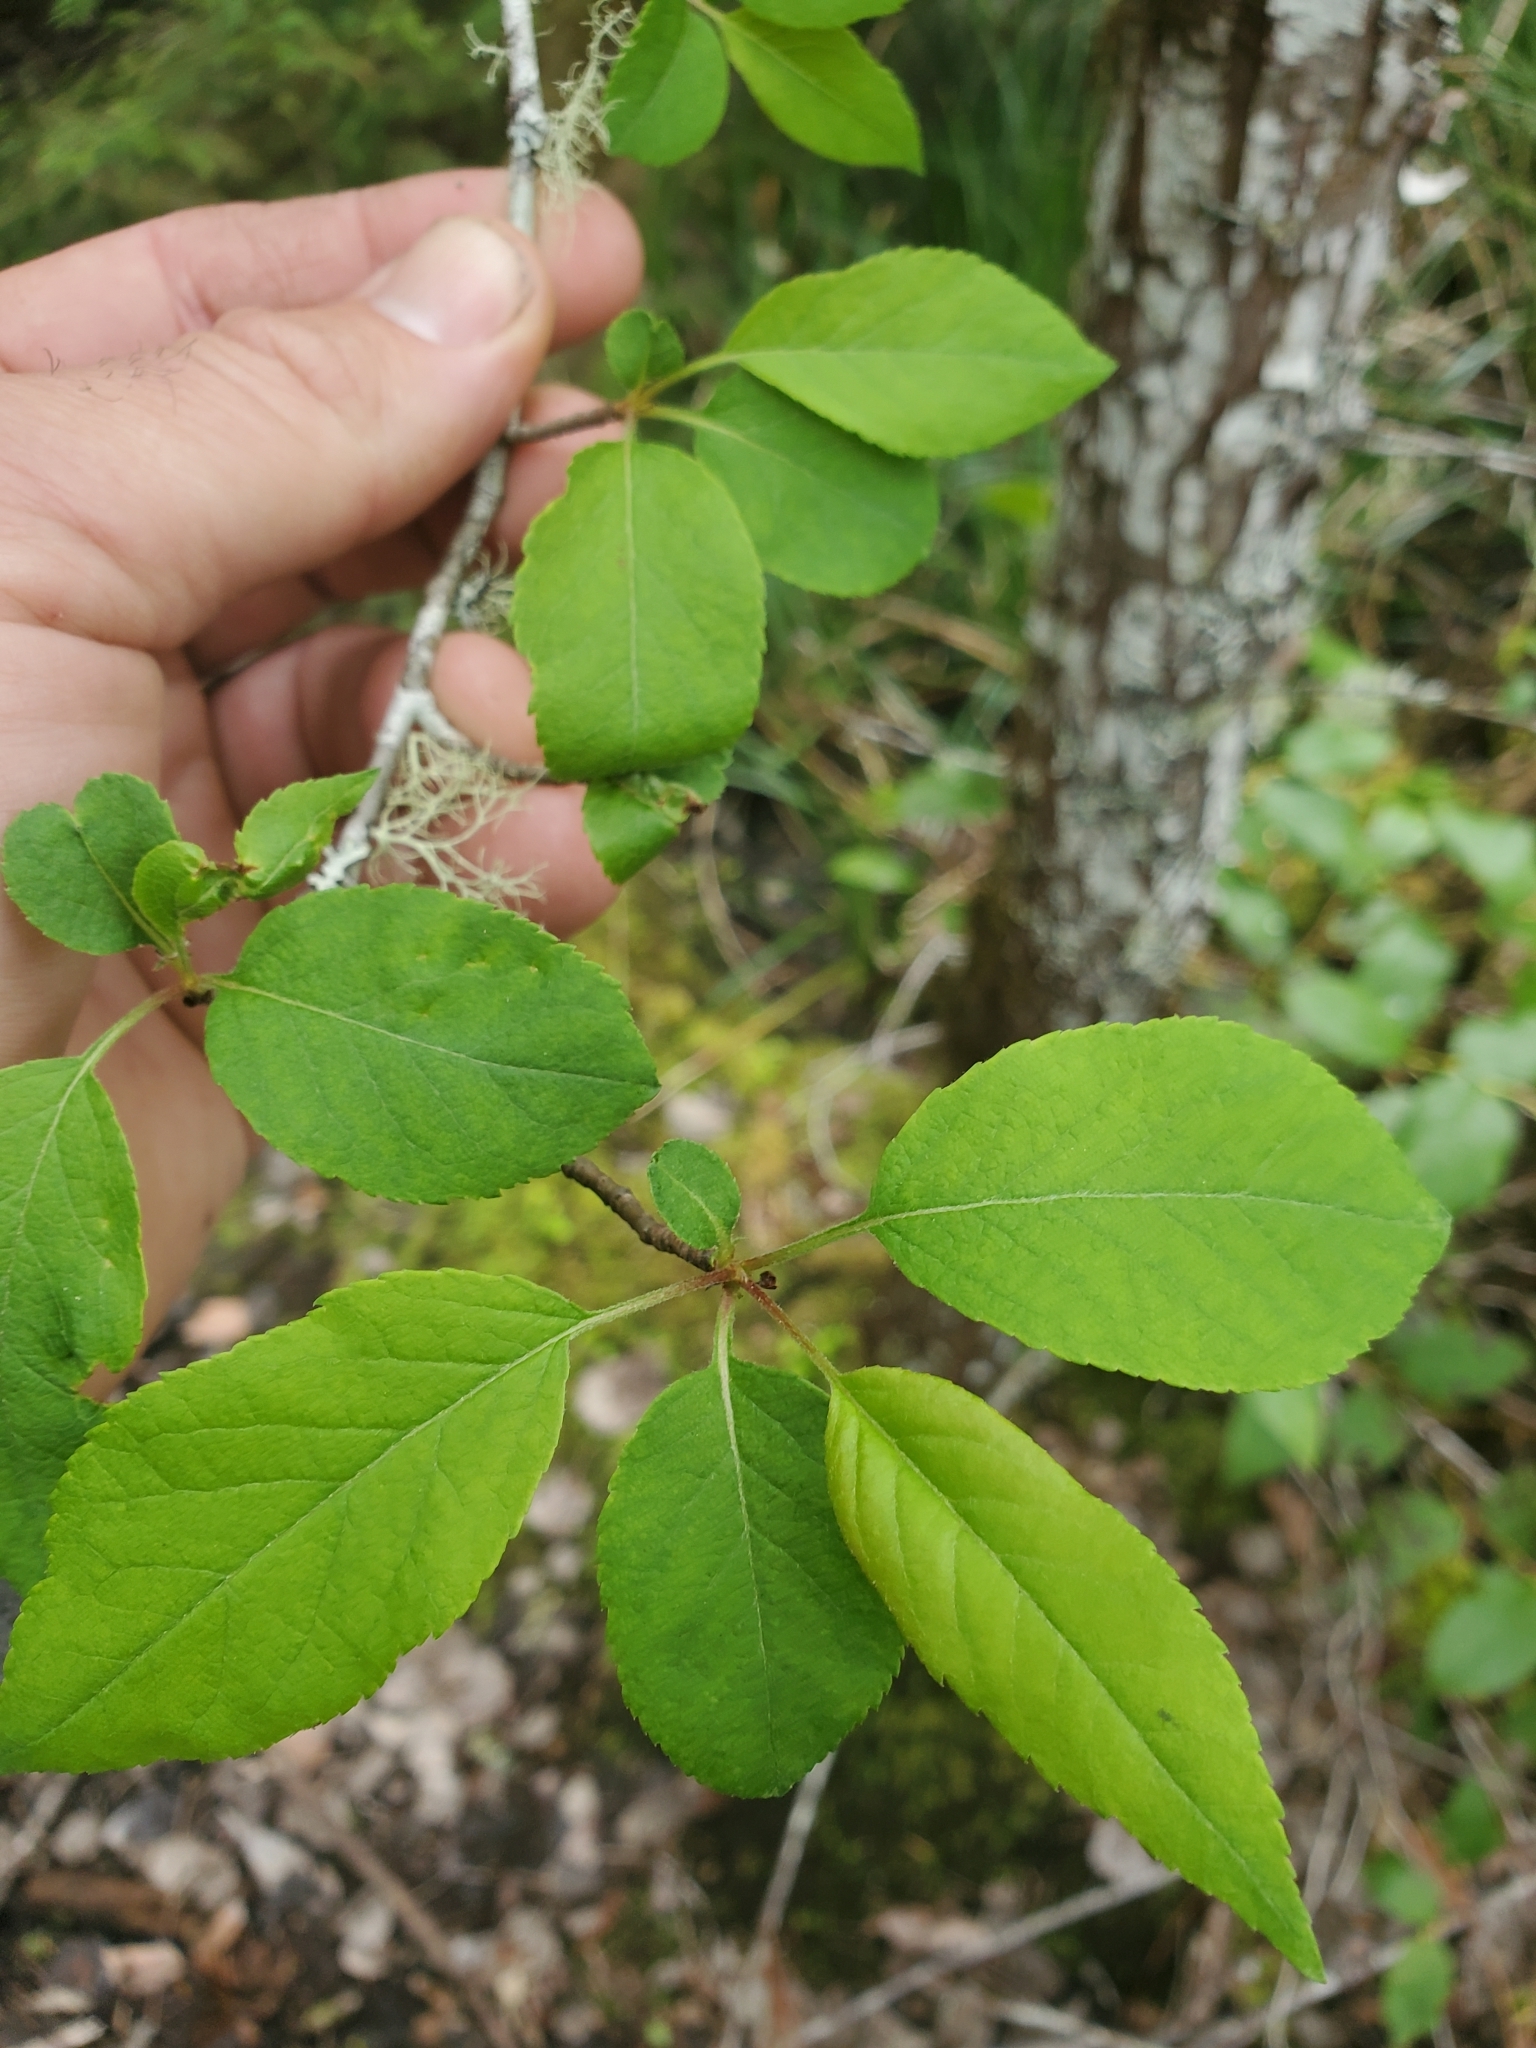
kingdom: Plantae
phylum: Tracheophyta
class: Magnoliopsida
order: Rosales
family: Rosaceae
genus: Malus
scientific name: Malus fusca
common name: Oregon crab apple
